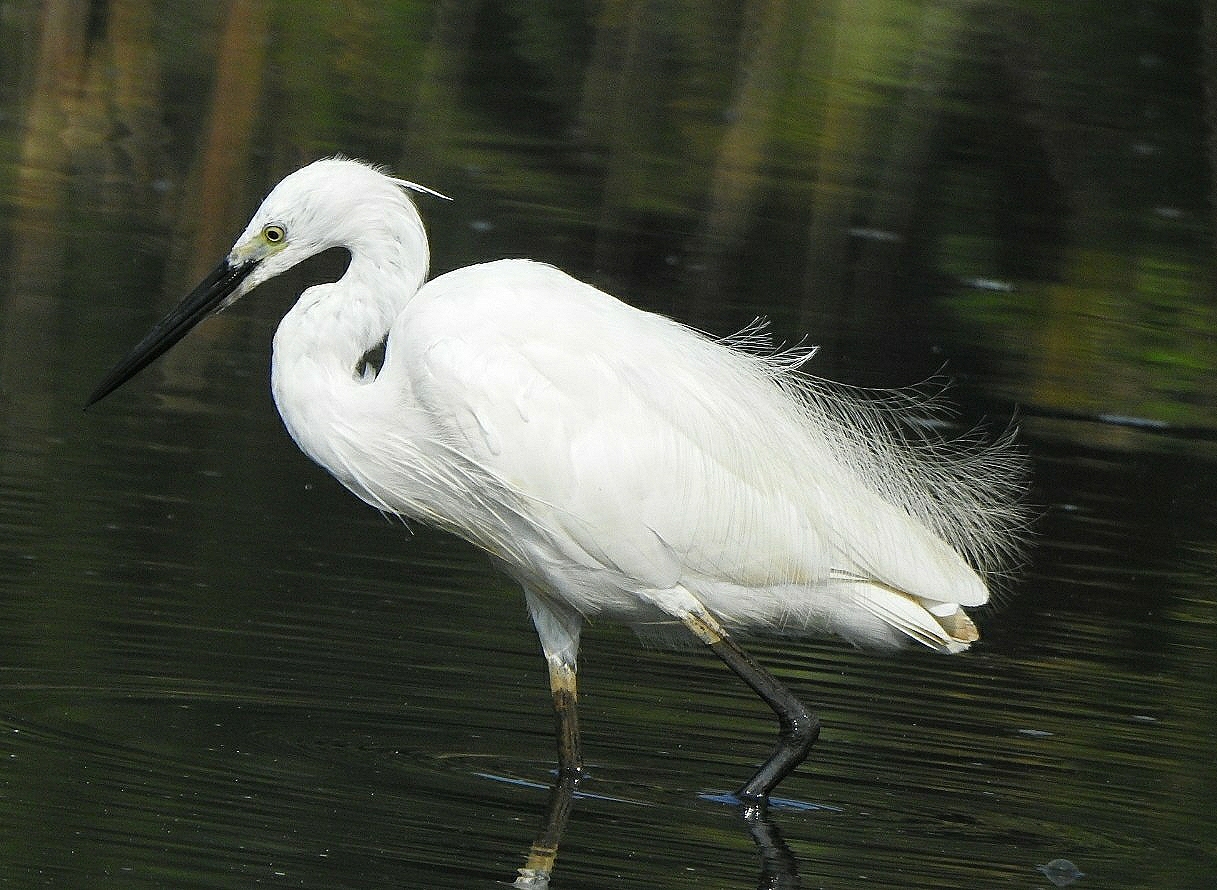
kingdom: Animalia
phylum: Chordata
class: Aves
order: Pelecaniformes
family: Ardeidae
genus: Egretta
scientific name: Egretta garzetta
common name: Little egret
